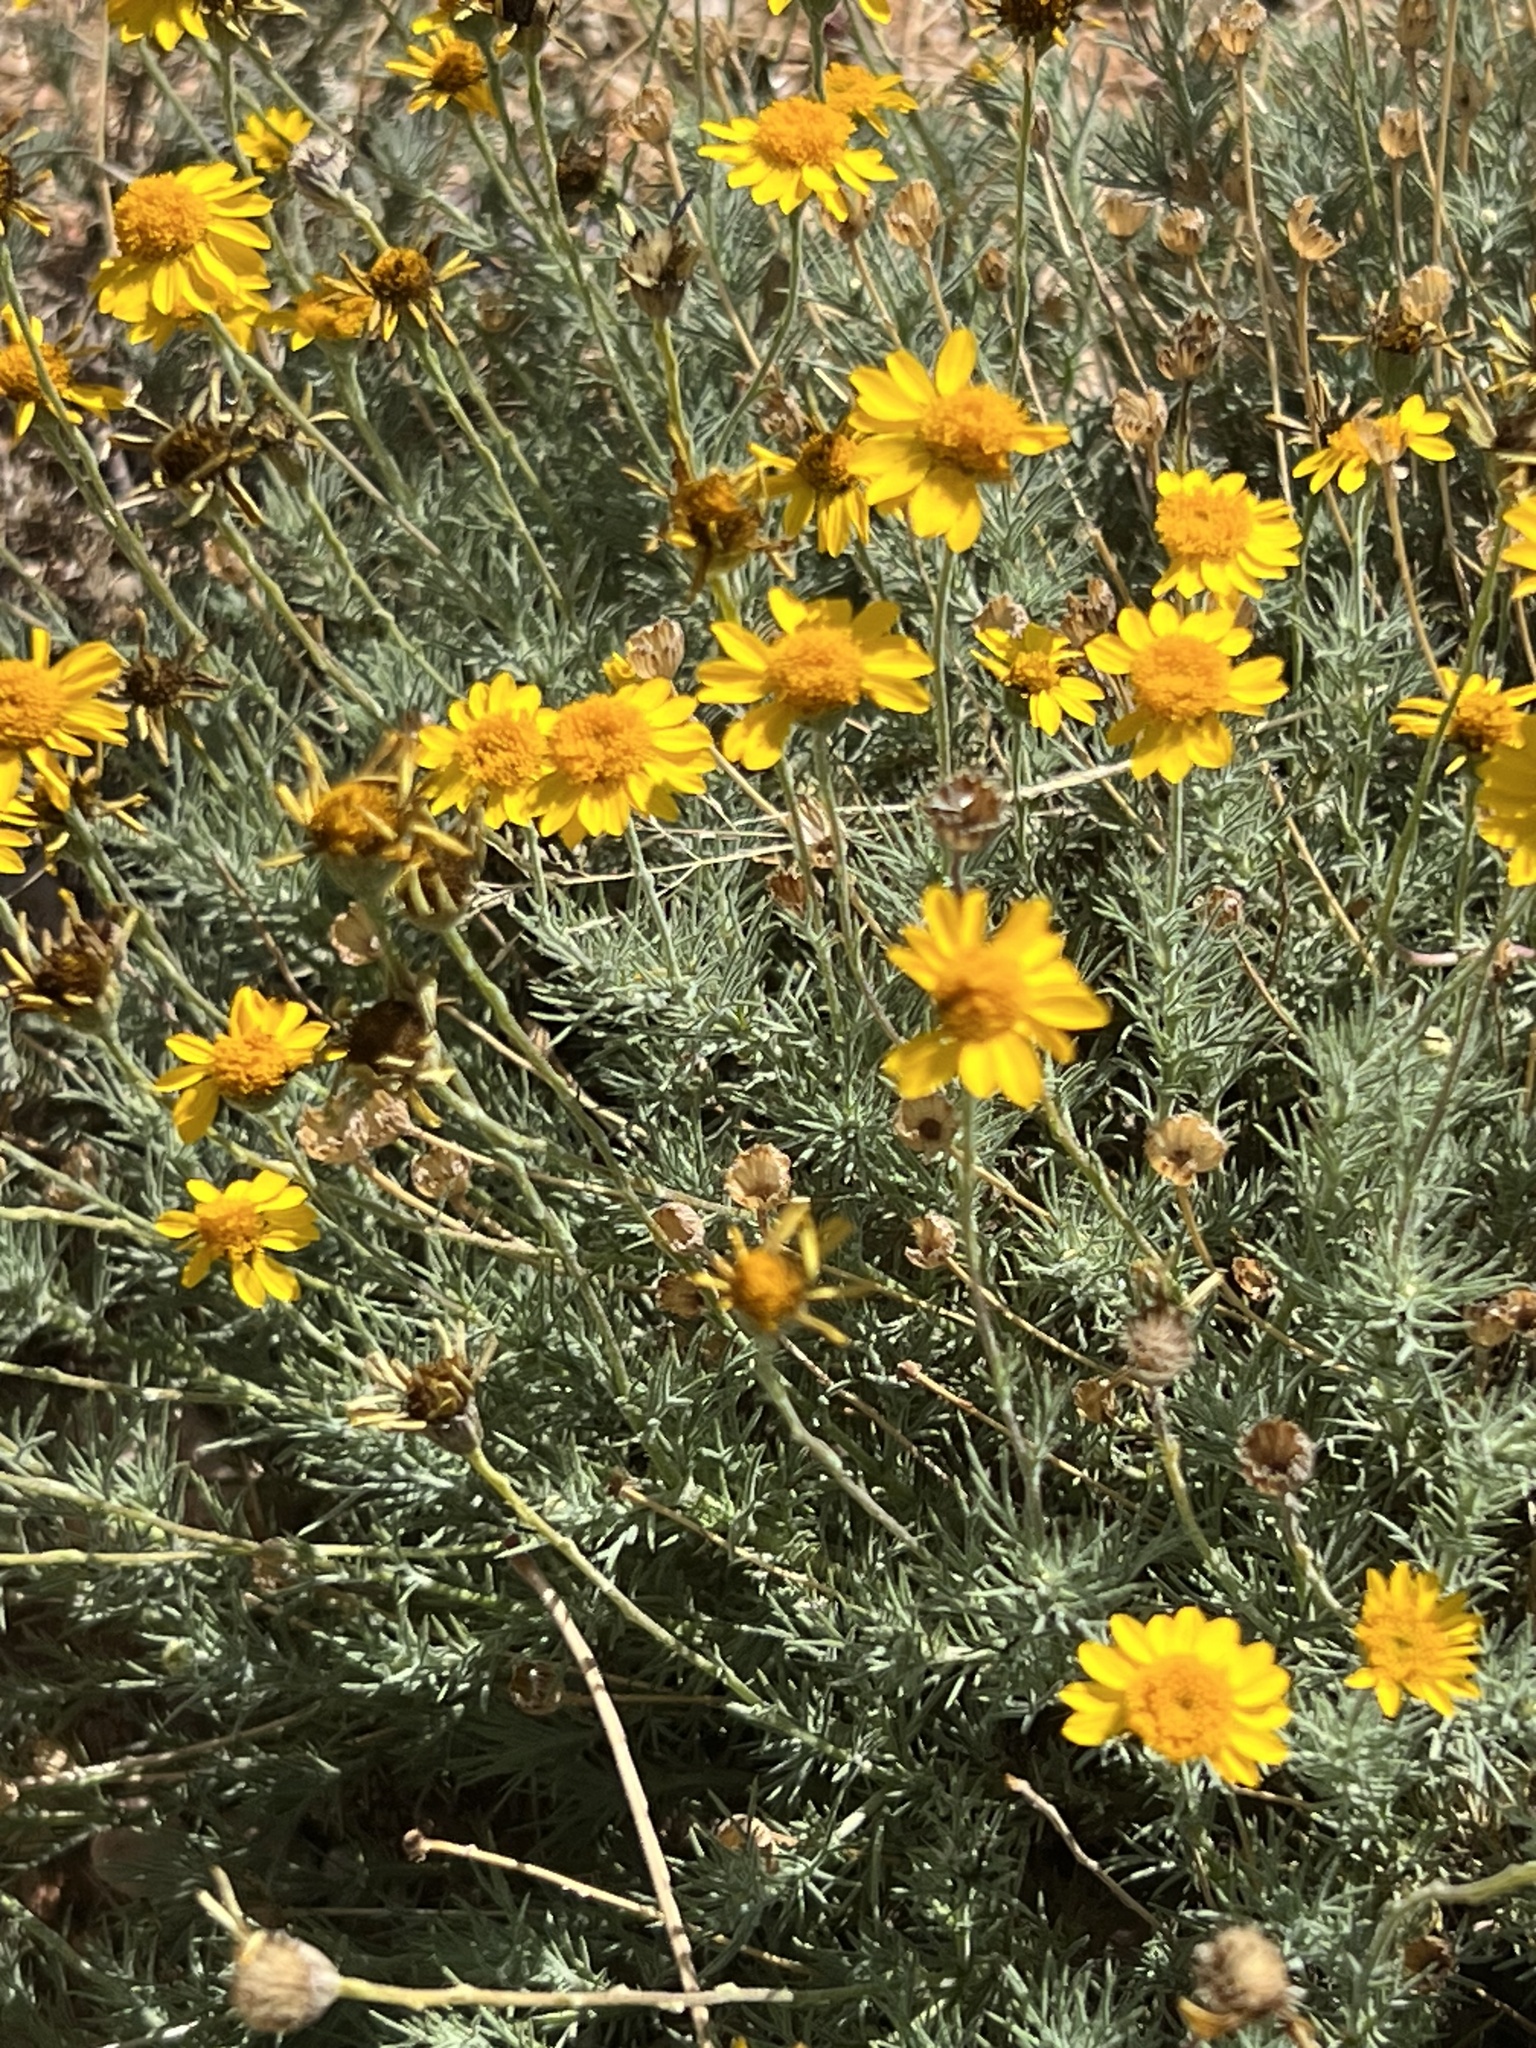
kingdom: Plantae
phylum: Tracheophyta
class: Magnoliopsida
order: Asterales
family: Asteraceae
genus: Thymophylla
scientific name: Thymophylla pentachaeta
